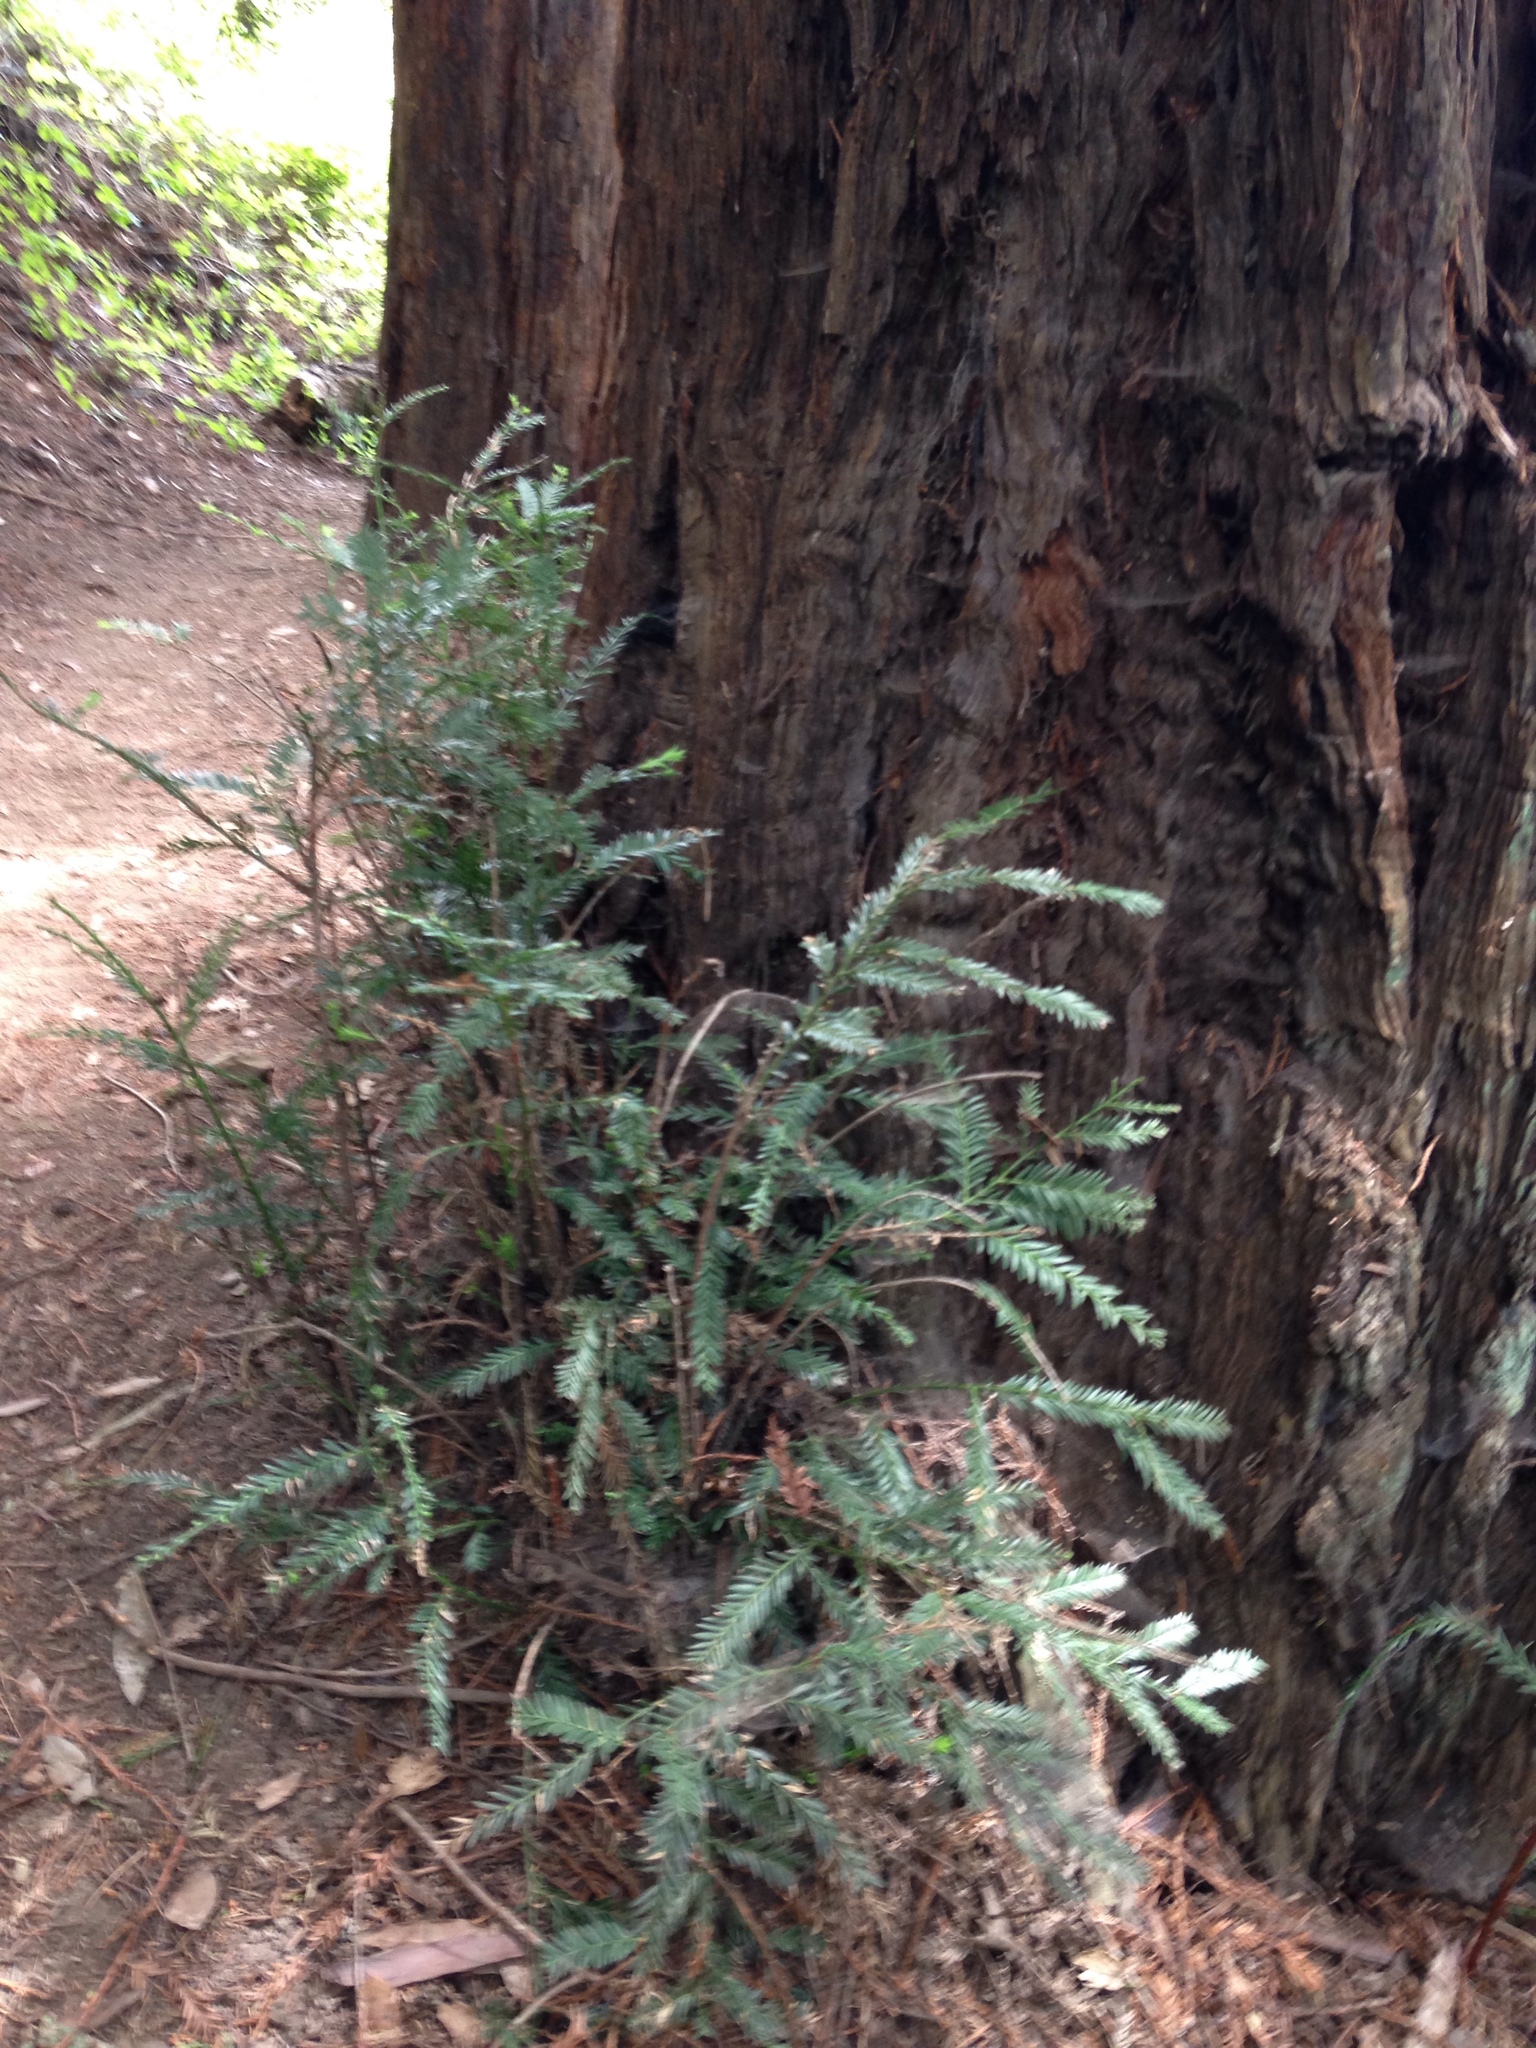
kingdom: Plantae
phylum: Tracheophyta
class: Pinopsida
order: Pinales
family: Cupressaceae
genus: Sequoia
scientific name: Sequoia sempervirens
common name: Coast redwood
